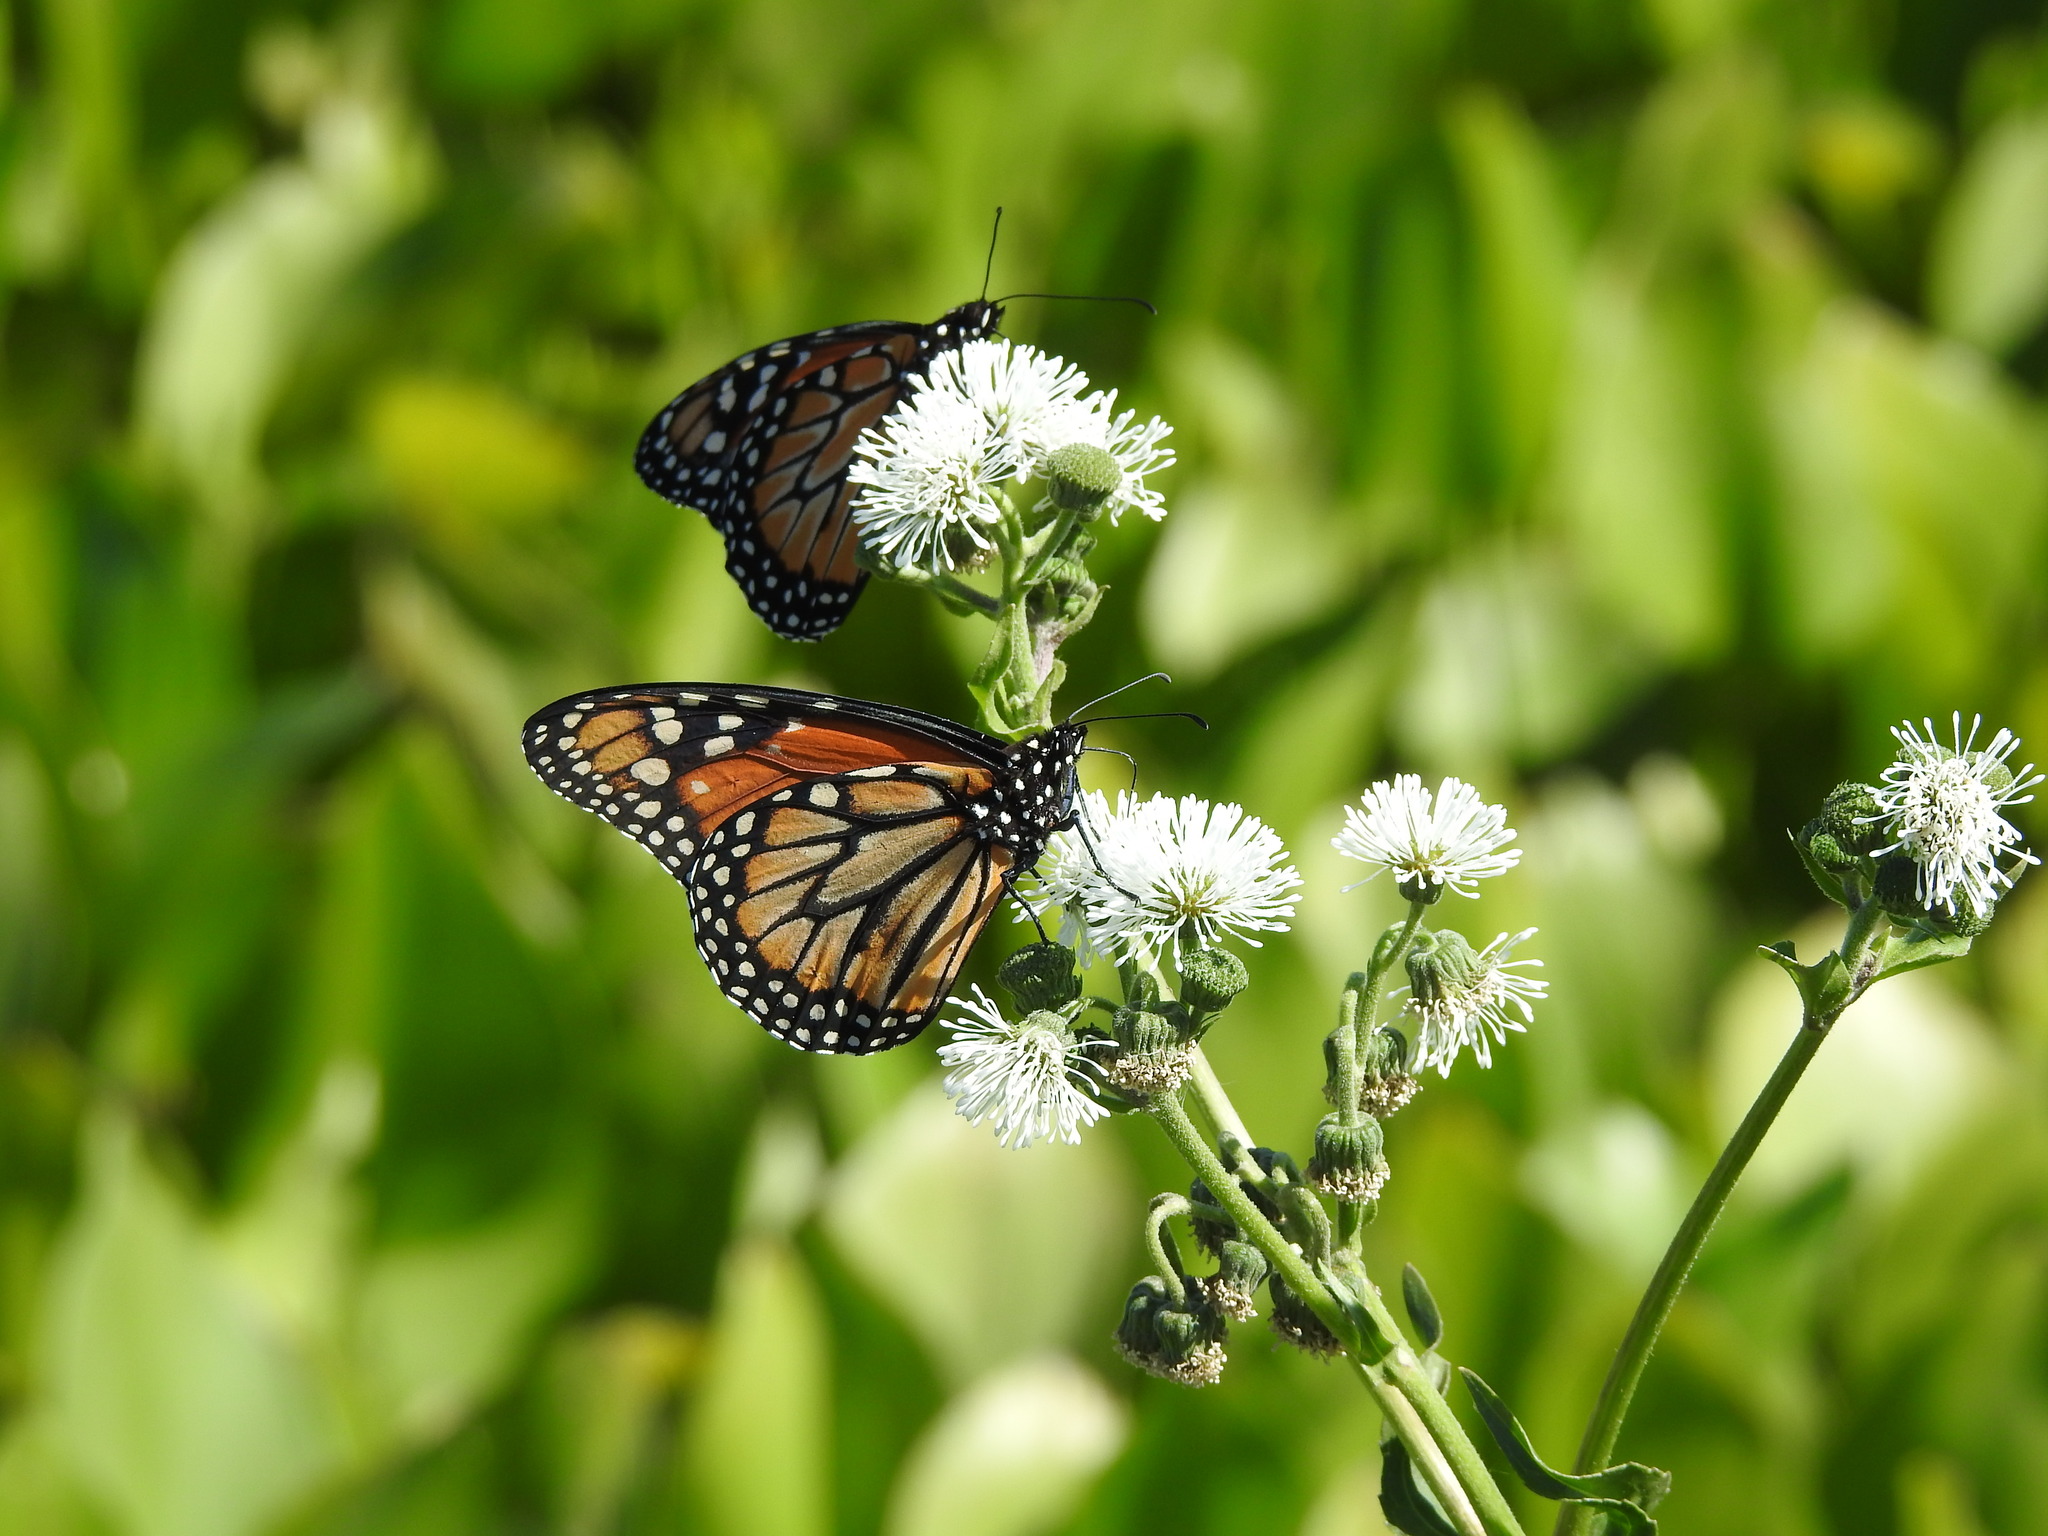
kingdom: Animalia
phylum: Arthropoda
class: Insecta
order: Lepidoptera
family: Nymphalidae
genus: Danaus
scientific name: Danaus erippus
